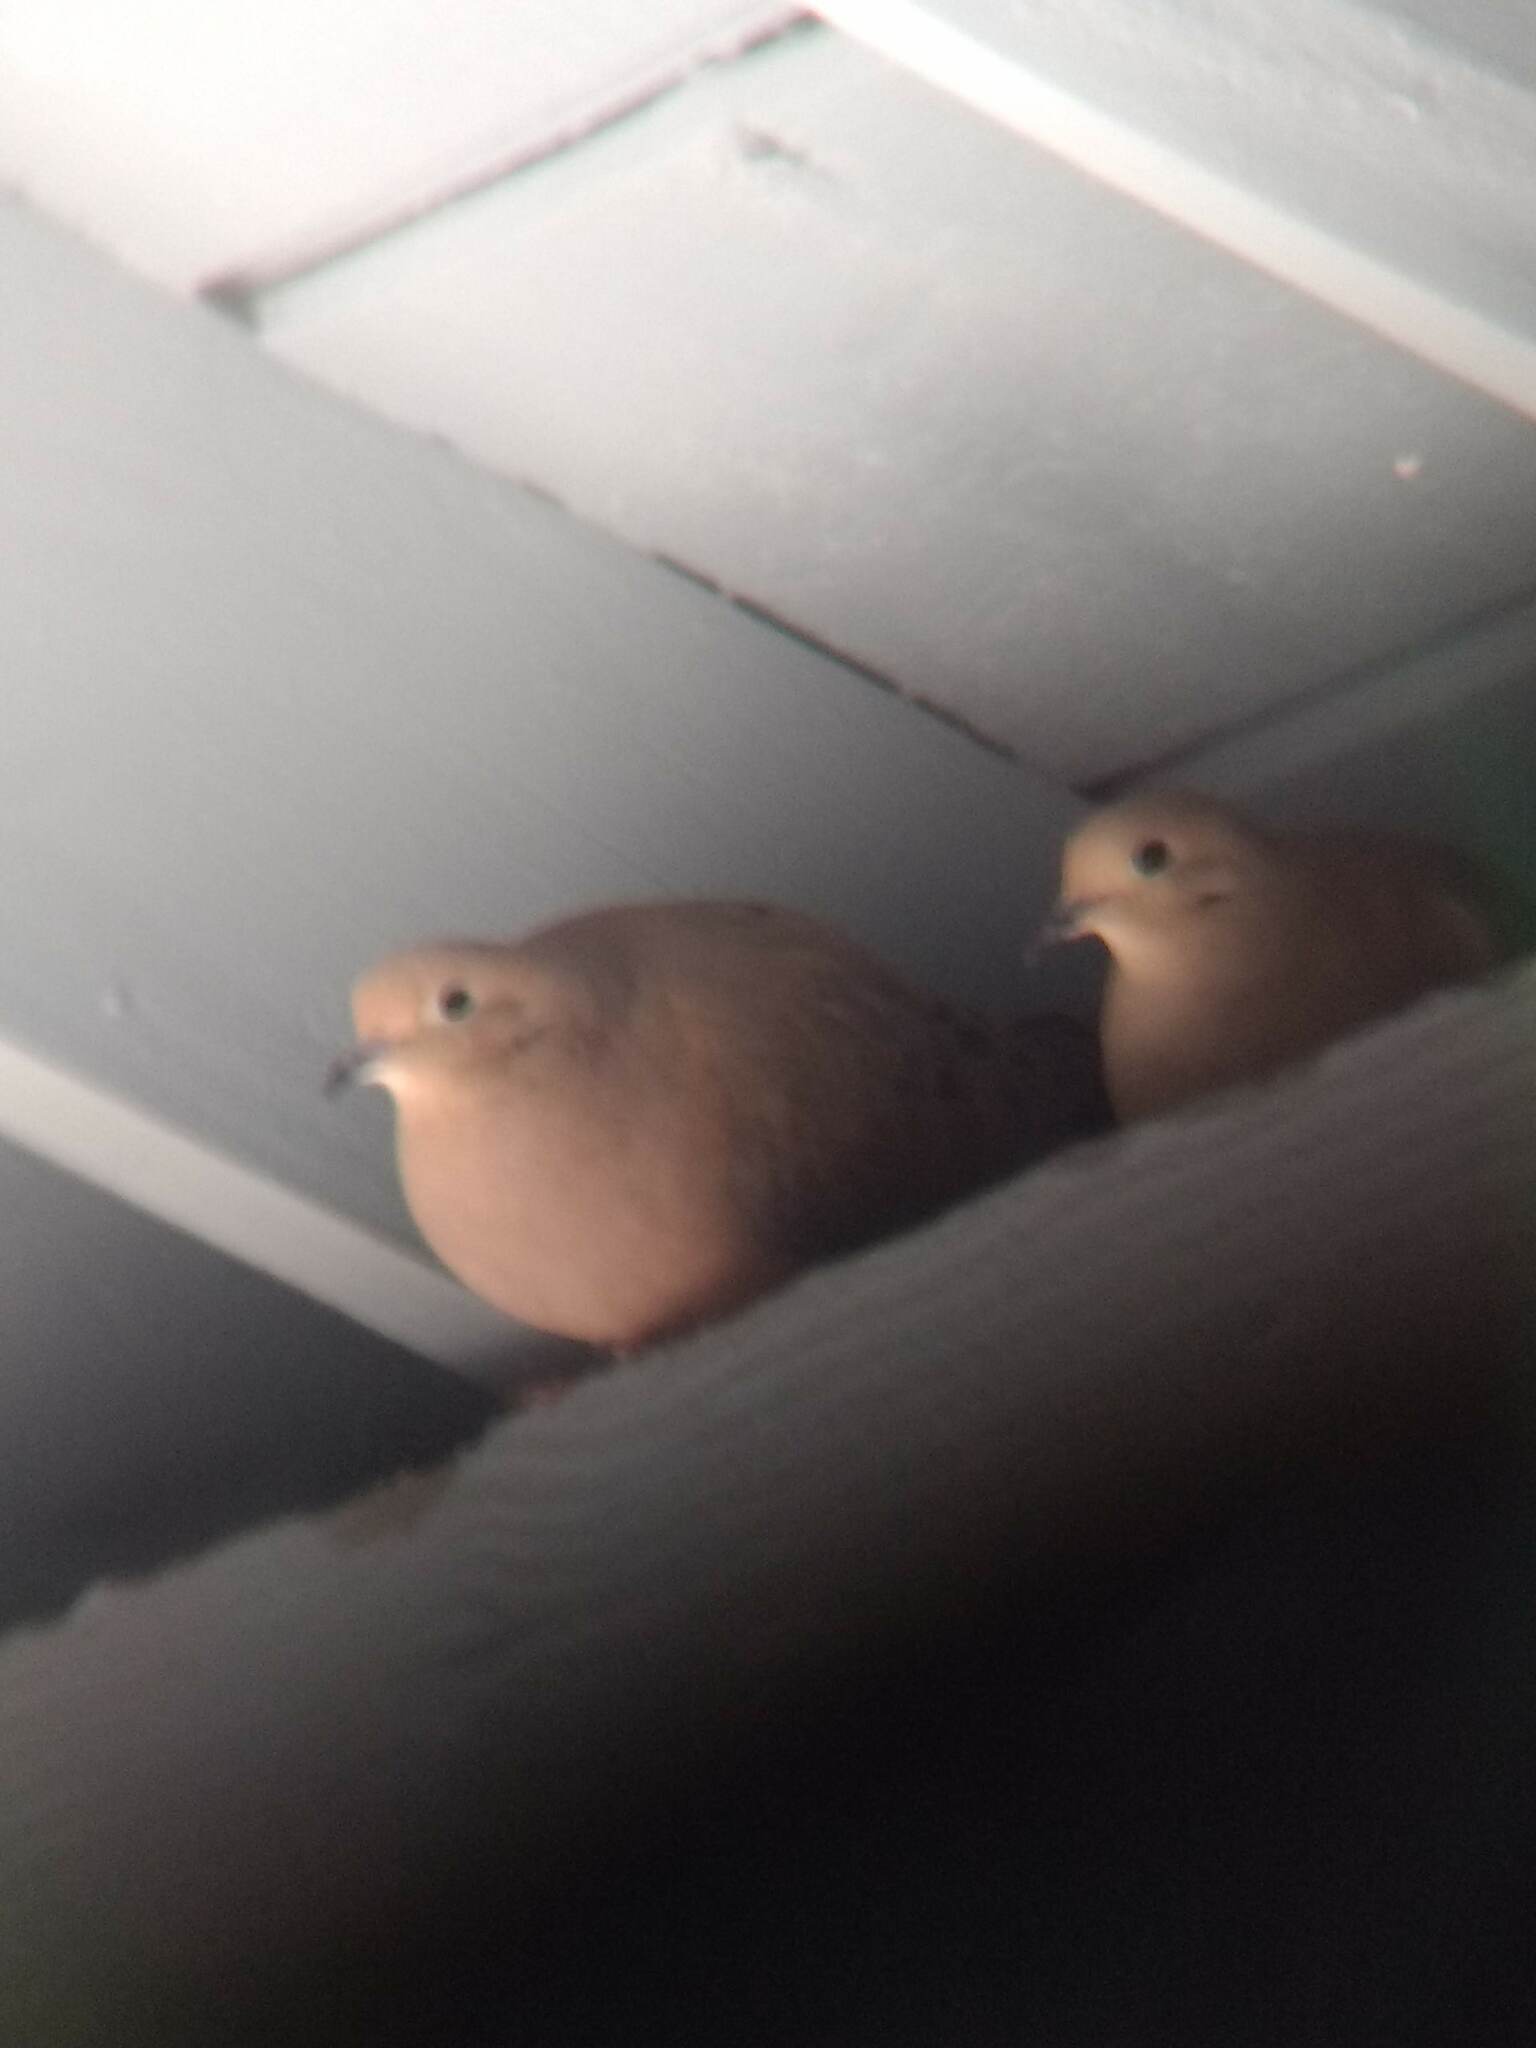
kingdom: Animalia
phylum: Chordata
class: Aves
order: Columbiformes
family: Columbidae
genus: Zenaida
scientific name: Zenaida macroura
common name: Mourning dove
